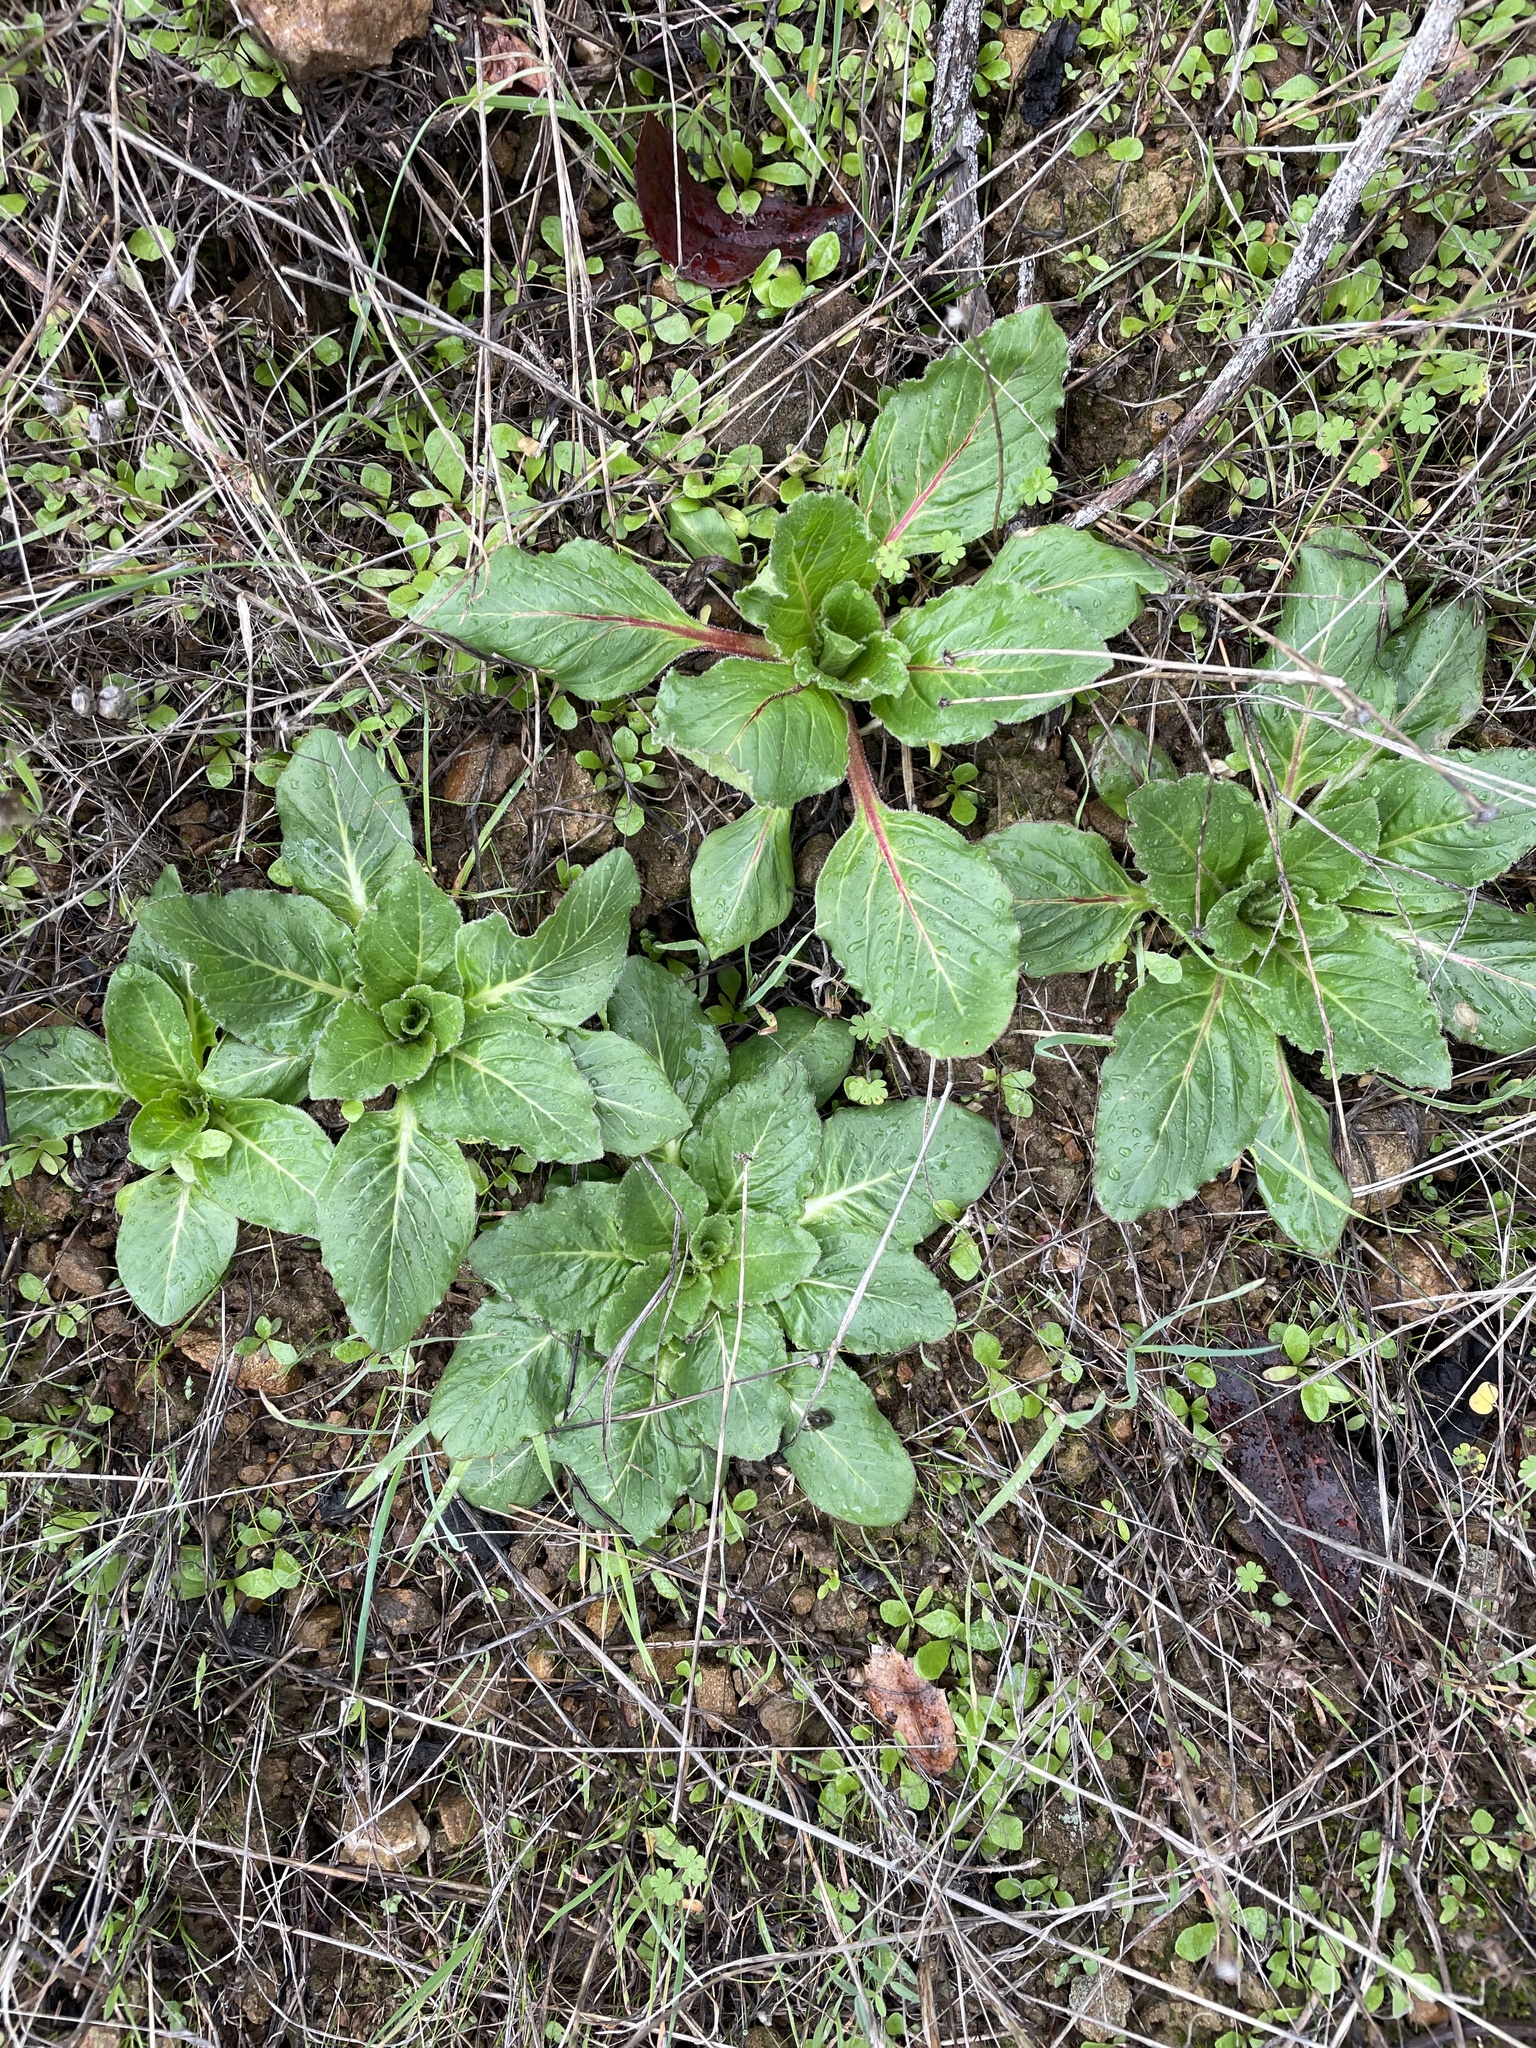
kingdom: Plantae
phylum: Tracheophyta
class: Magnoliopsida
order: Myrtales
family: Onagraceae
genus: Taraxia
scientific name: Taraxia ovata
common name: Goldeneggs
